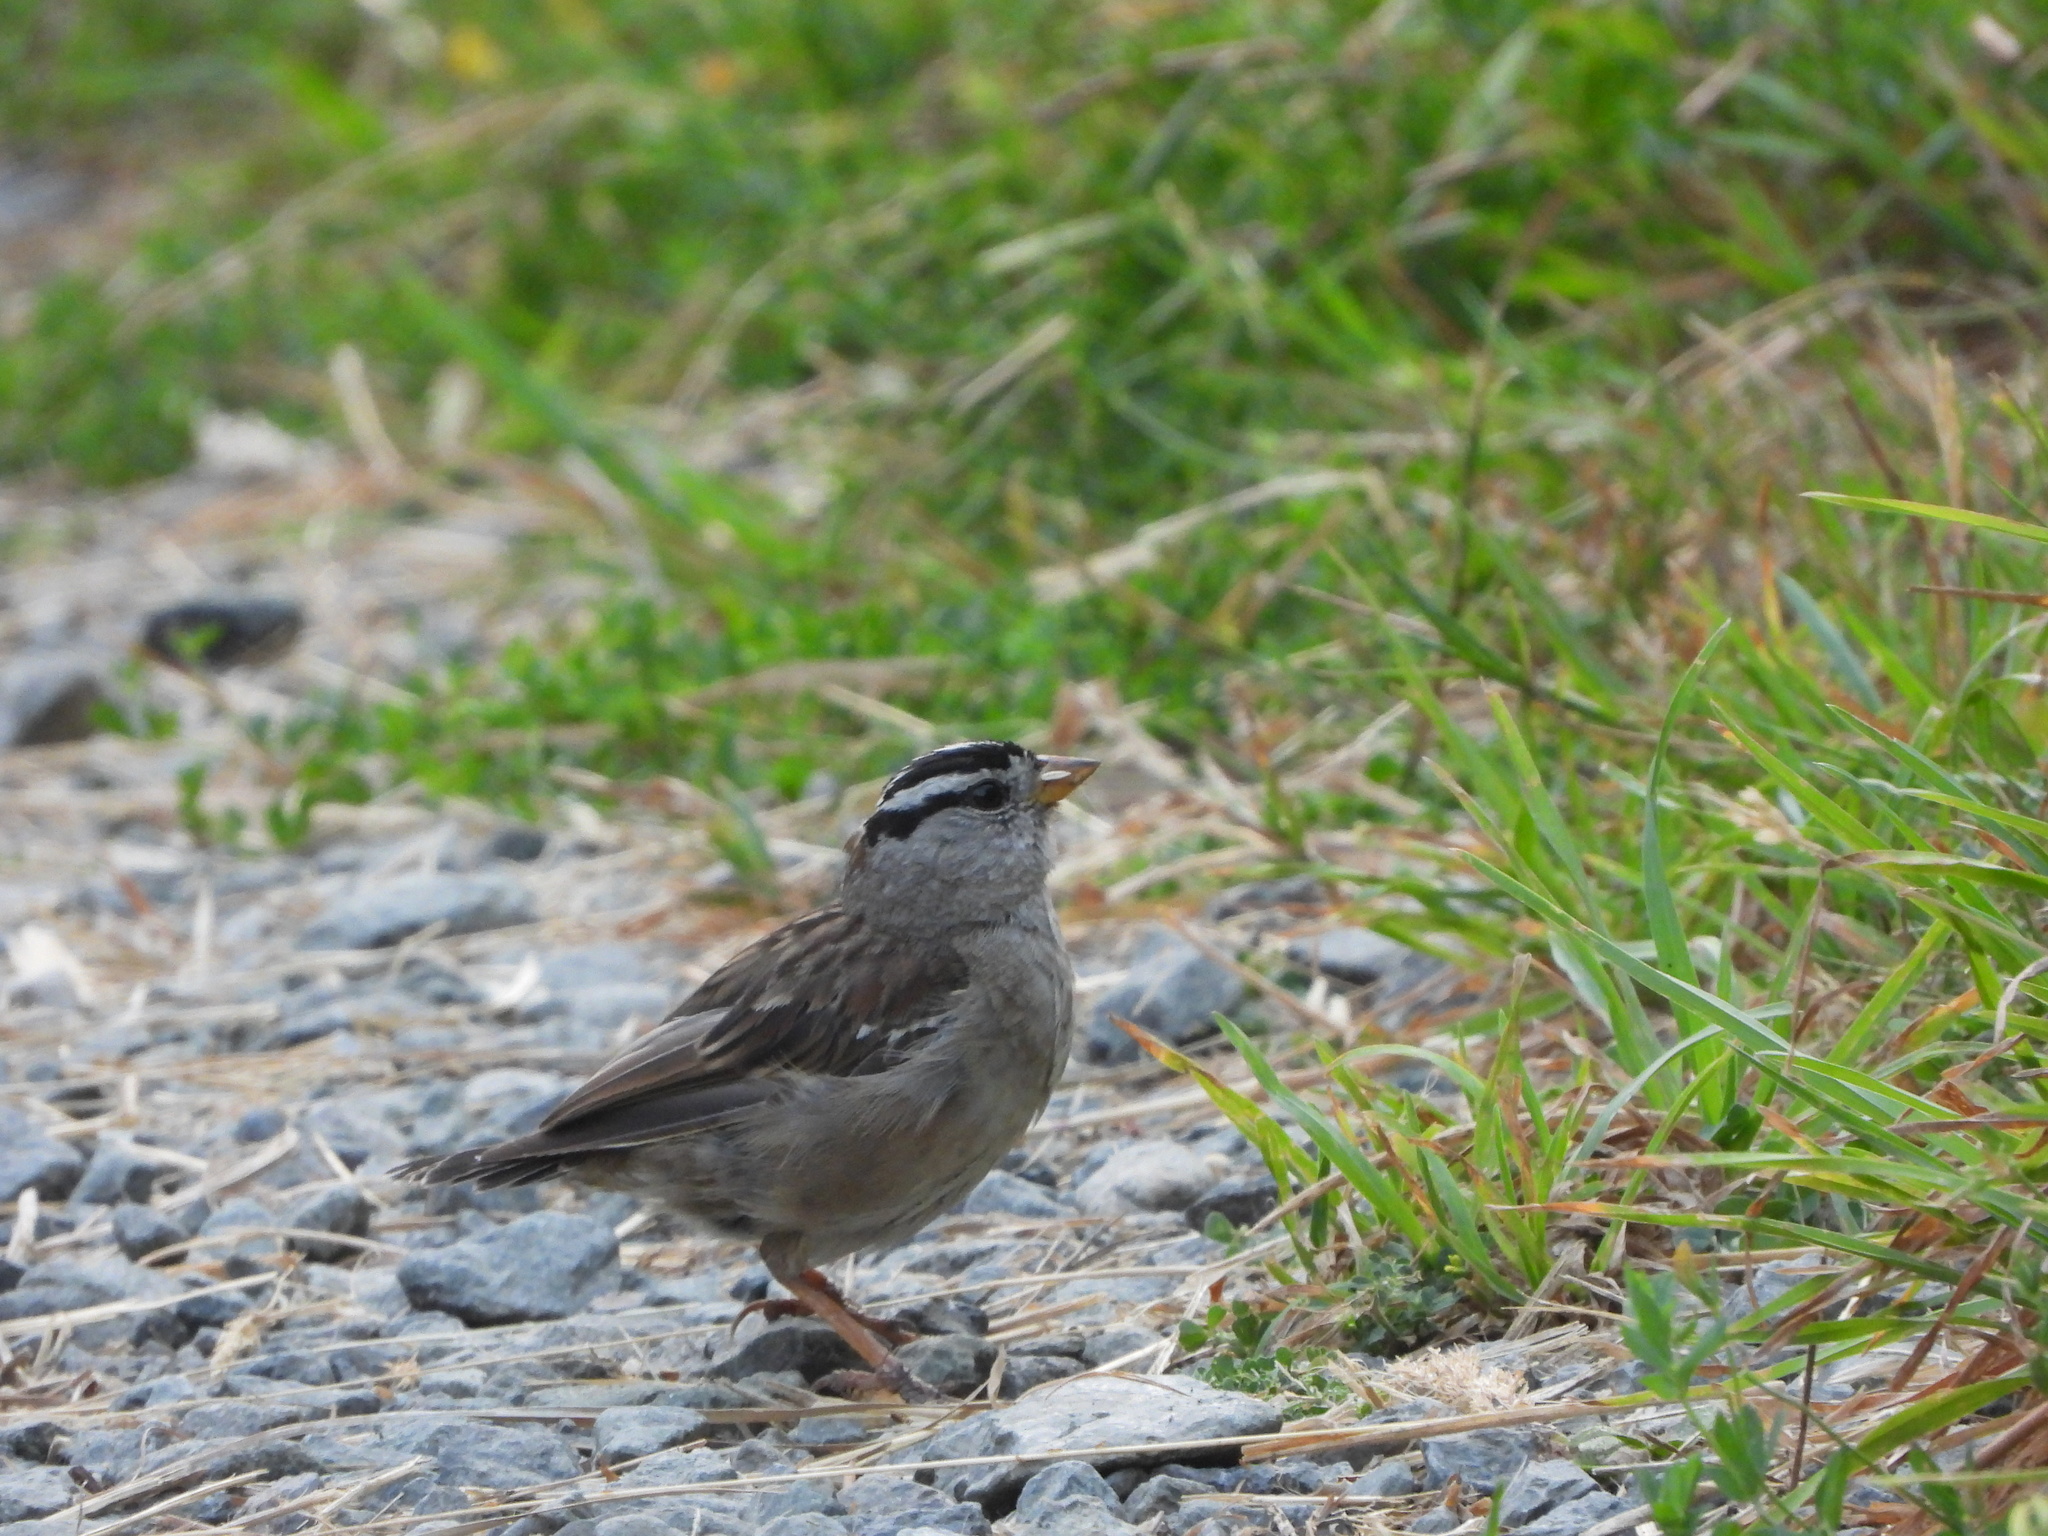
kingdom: Animalia
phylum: Chordata
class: Aves
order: Passeriformes
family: Passerellidae
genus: Zonotrichia
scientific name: Zonotrichia leucophrys
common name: White-crowned sparrow
